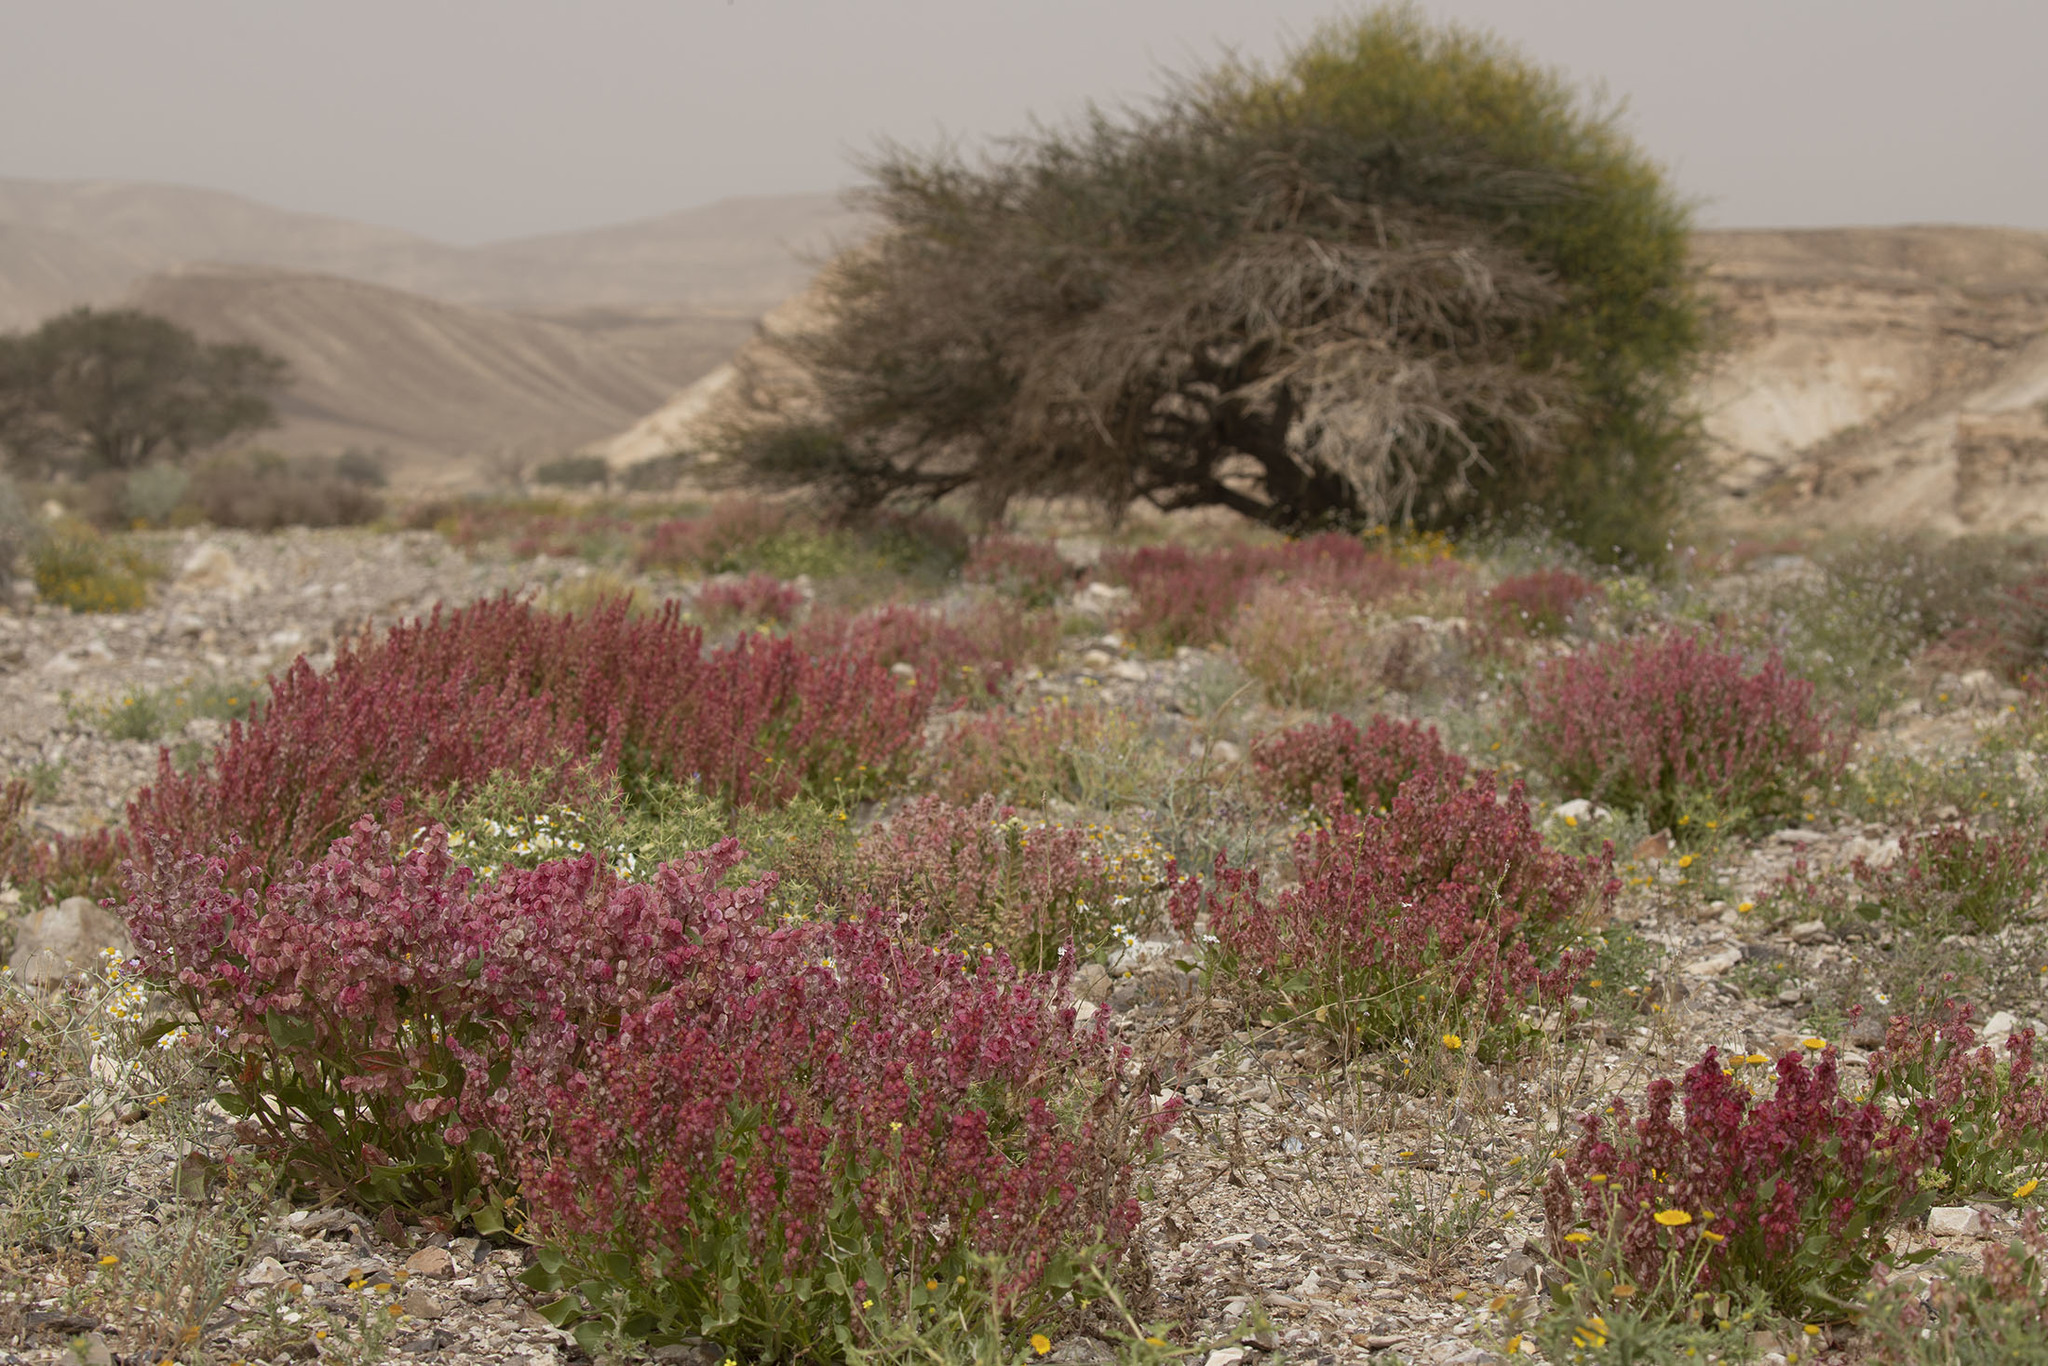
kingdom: Plantae
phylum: Tracheophyta
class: Magnoliopsida
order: Caryophyllales
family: Polygonaceae
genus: Rumex
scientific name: Rumex cyprius
